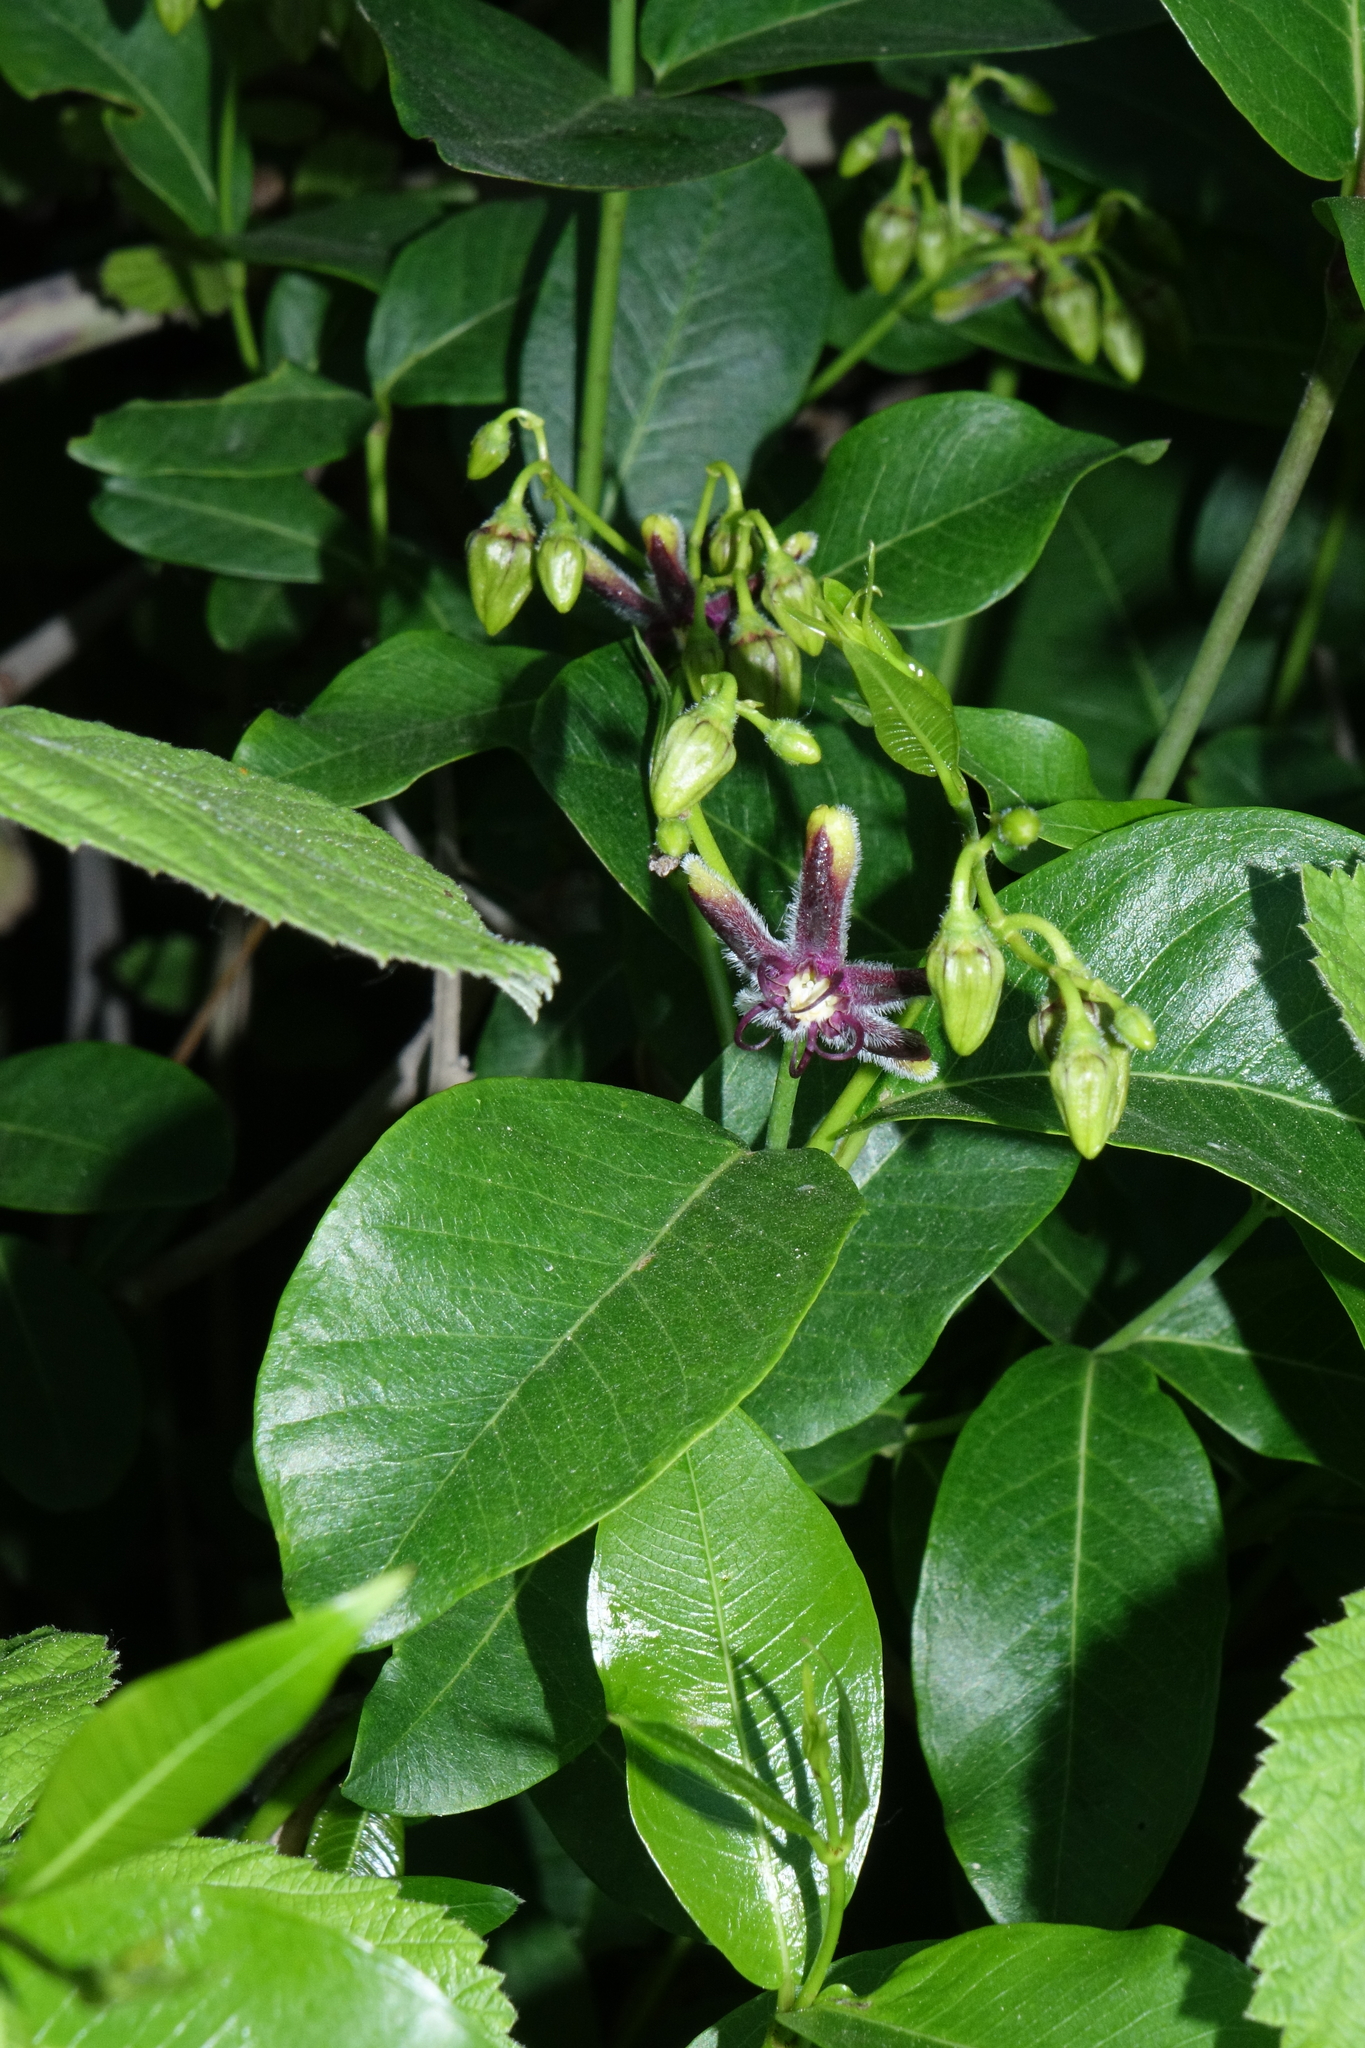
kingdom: Plantae
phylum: Tracheophyta
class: Magnoliopsida
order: Gentianales
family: Apocynaceae
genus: Periploca
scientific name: Periploca graeca
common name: Silkvine
